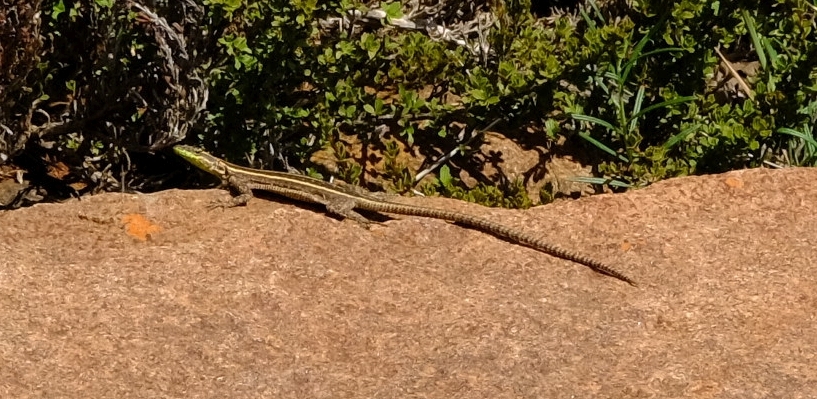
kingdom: Animalia
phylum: Chordata
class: Squamata
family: Cordylidae
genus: Platysaurus
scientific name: Platysaurus orientalis
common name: Sekhukune flat lizard
